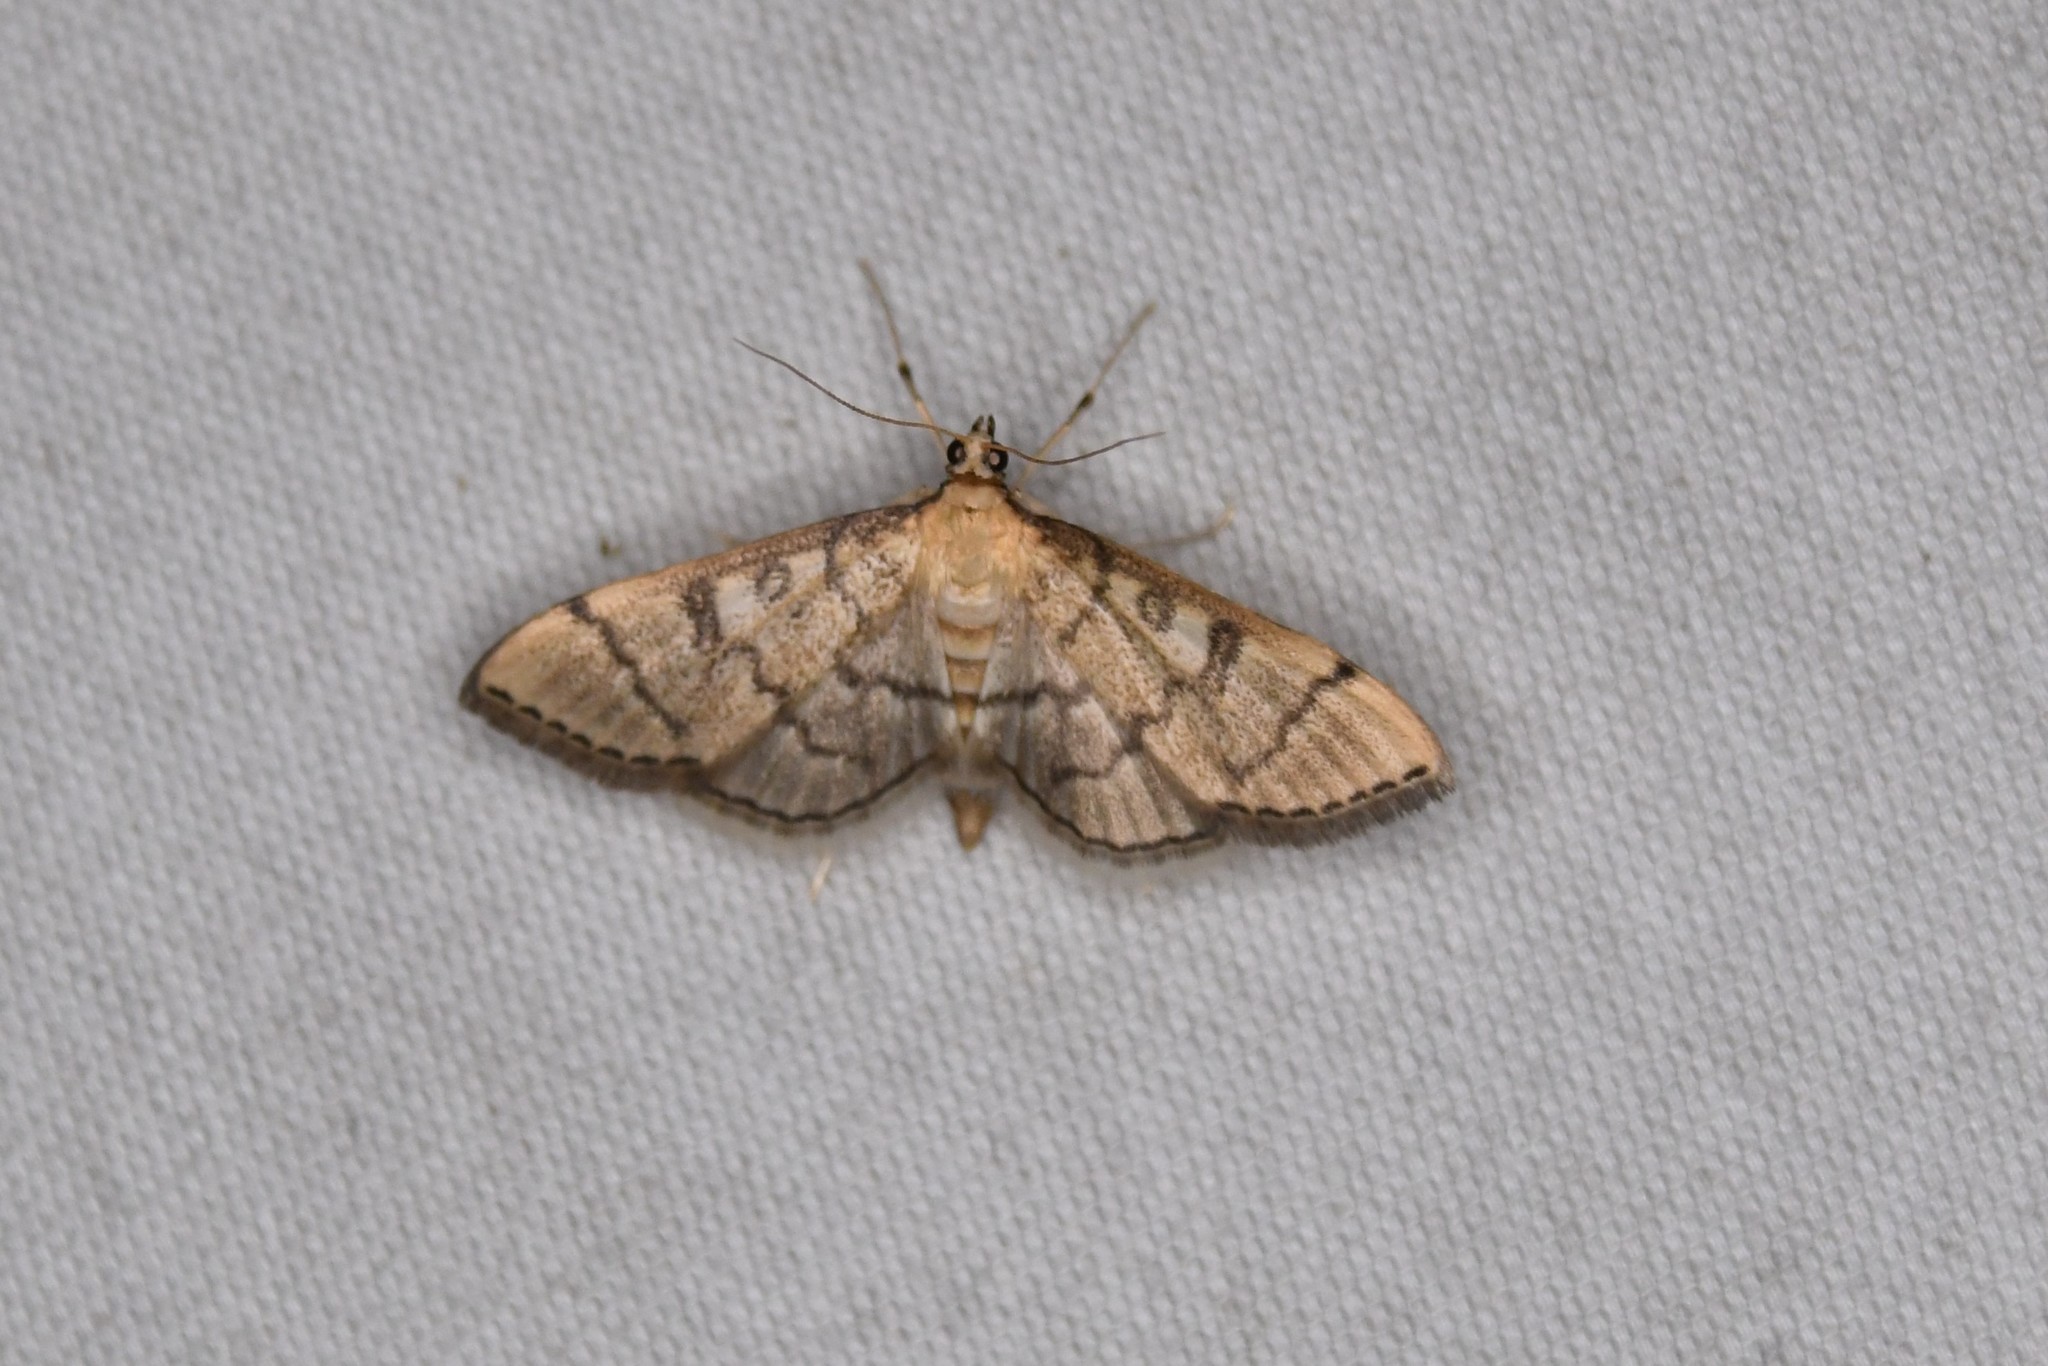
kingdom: Animalia
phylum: Arthropoda
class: Insecta
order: Lepidoptera
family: Crambidae
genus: Lamprosema
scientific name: Lamprosema Blepharomastix ranalis
